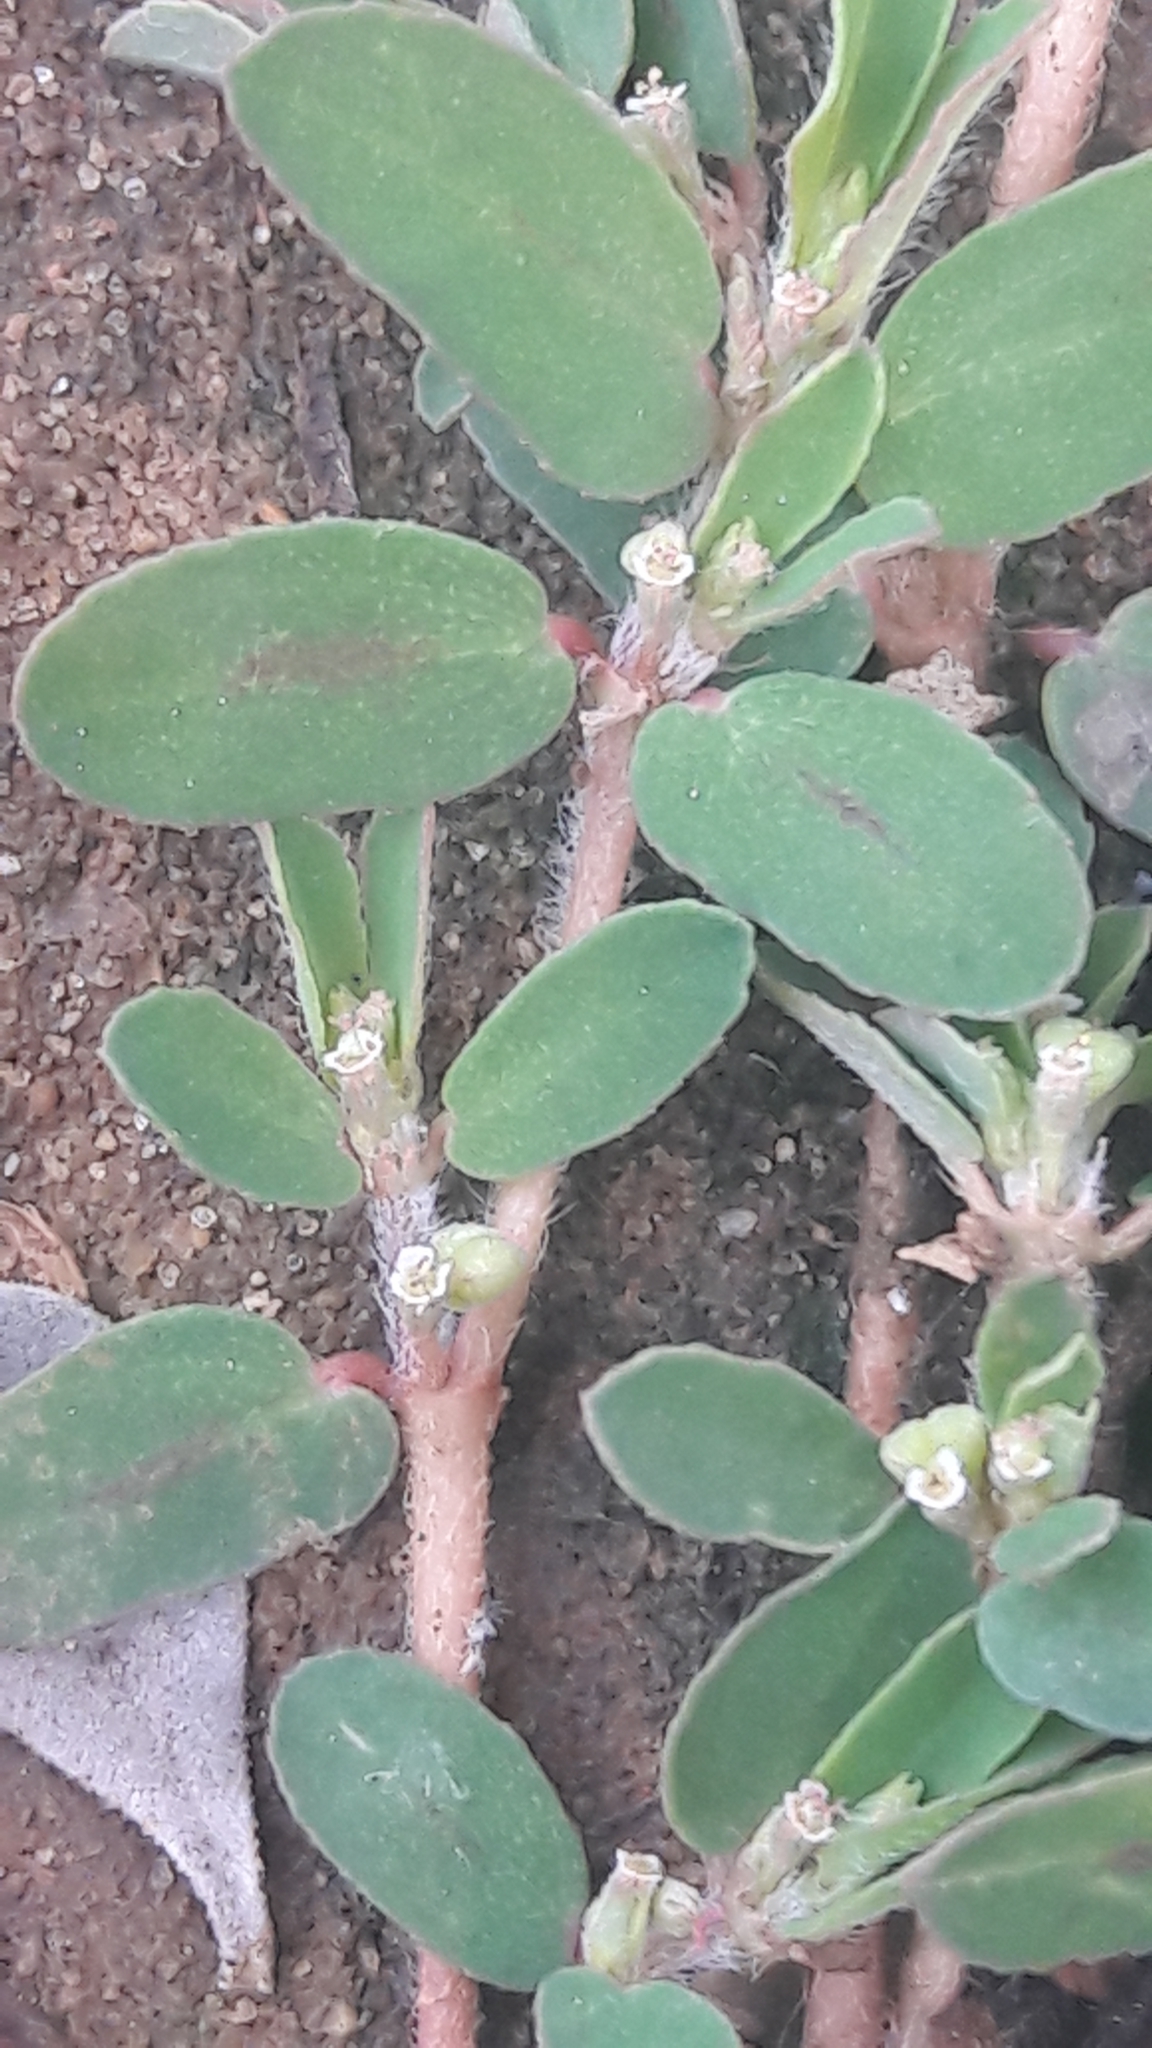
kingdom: Plantae
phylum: Tracheophyta
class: Magnoliopsida
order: Malpighiales
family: Euphorbiaceae
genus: Euphorbia
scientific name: Euphorbia maculata
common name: Spotted spurge
